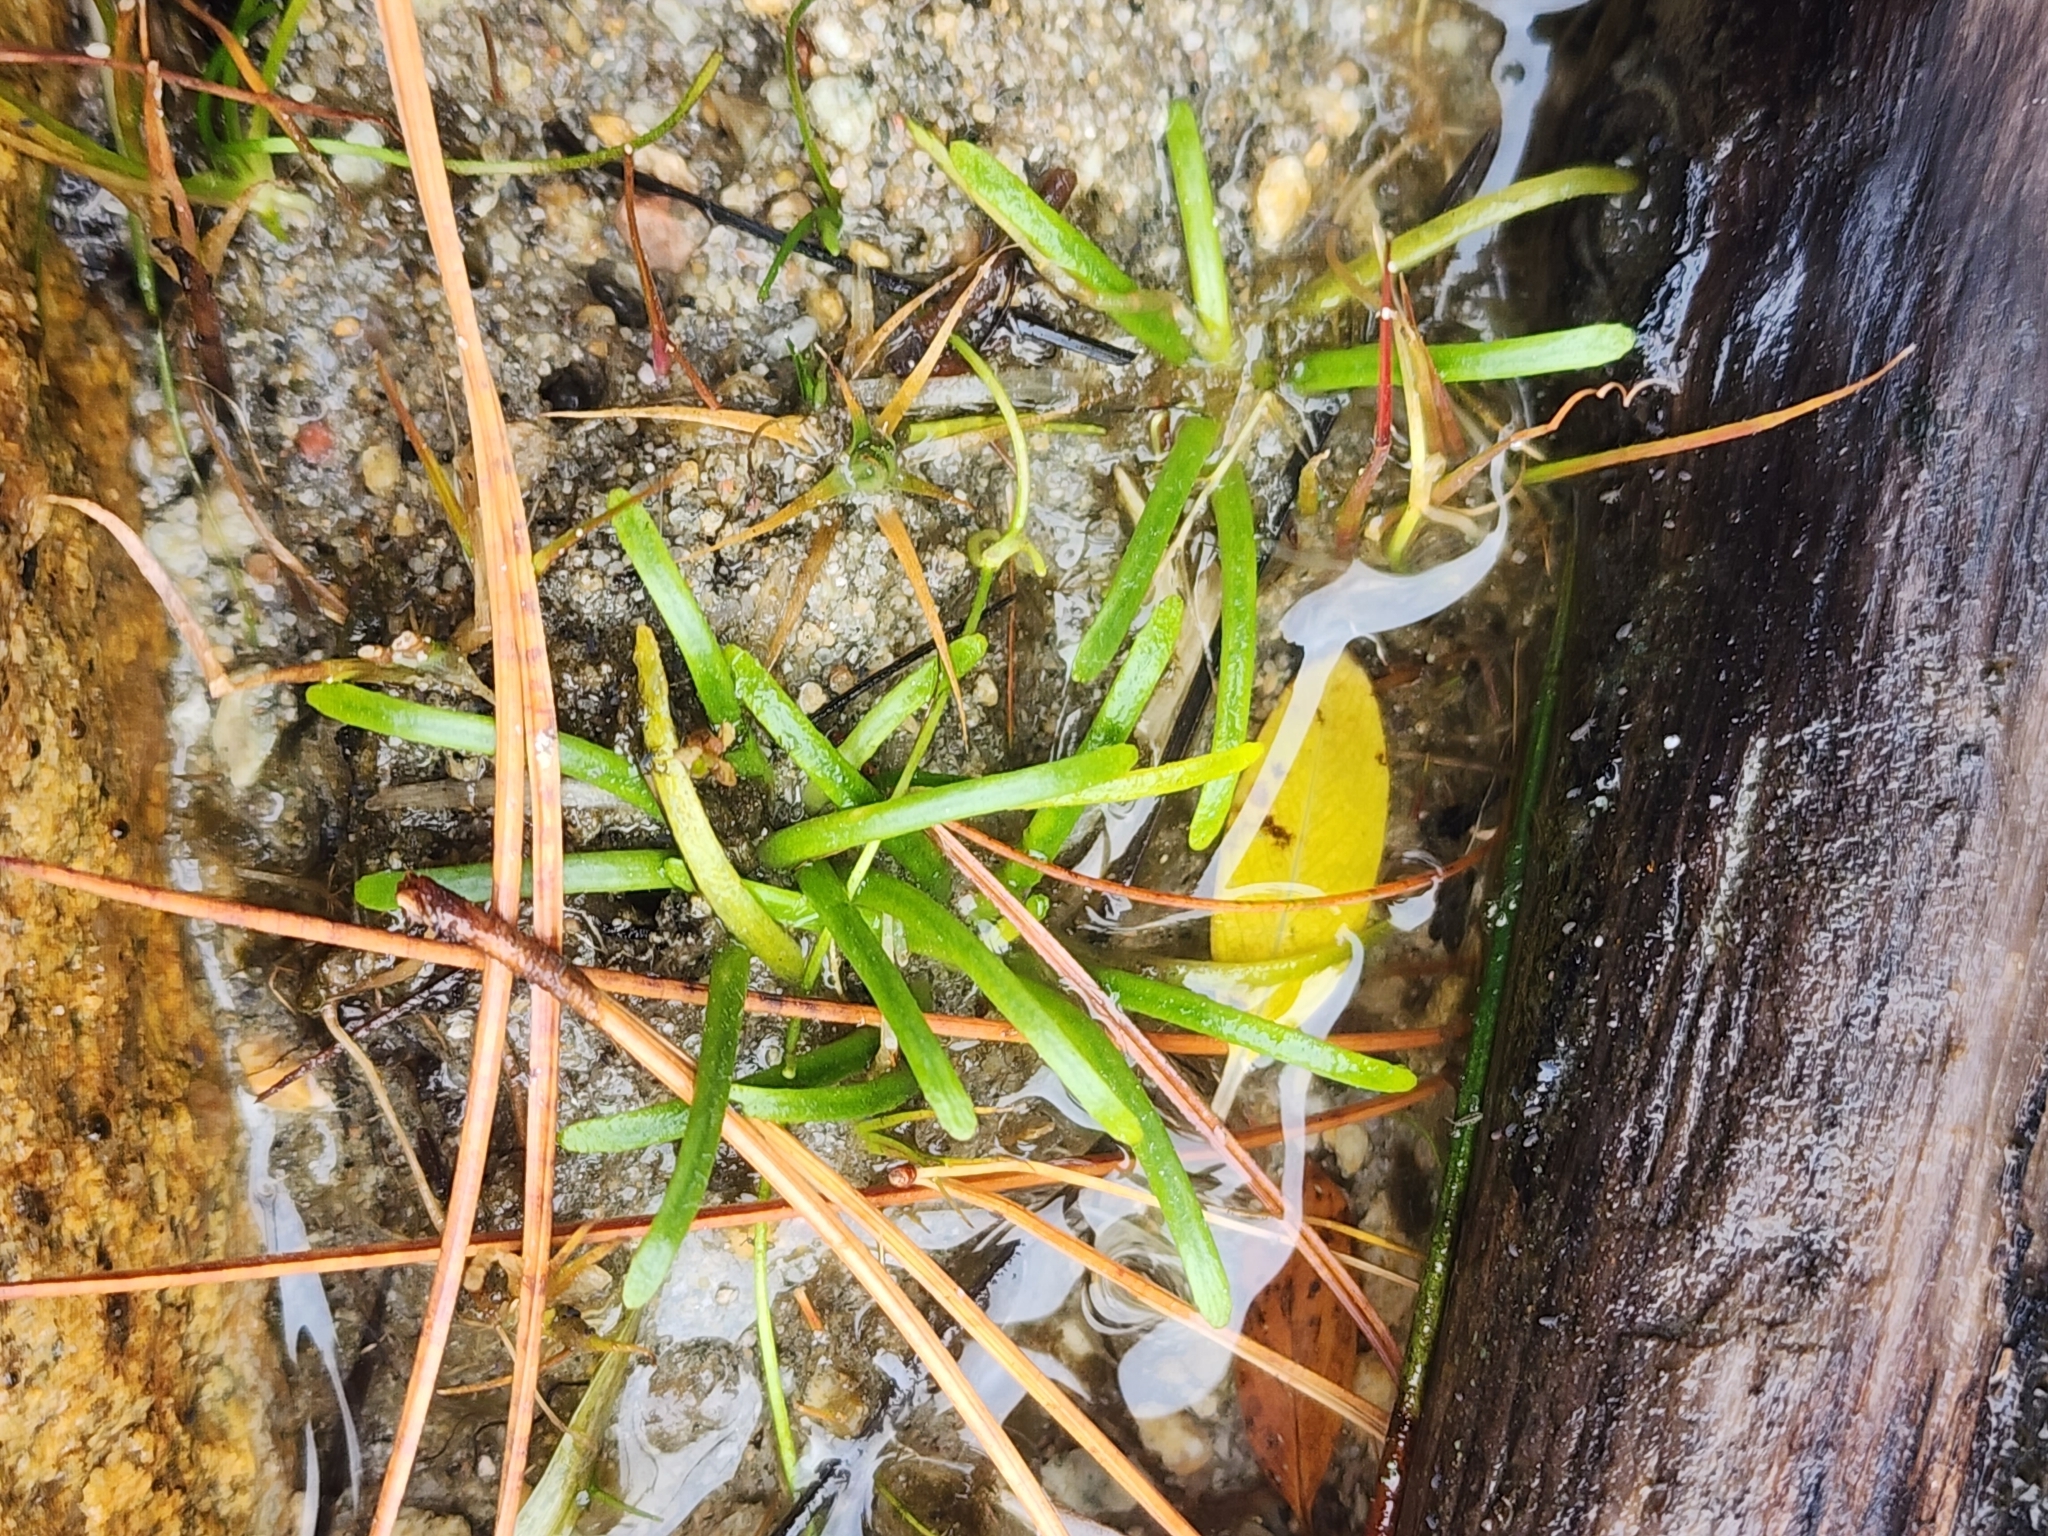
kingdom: Plantae
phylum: Tracheophyta
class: Magnoliopsida
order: Asterales
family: Campanulaceae
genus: Lobelia
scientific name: Lobelia dortmanna
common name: Water lobelia
